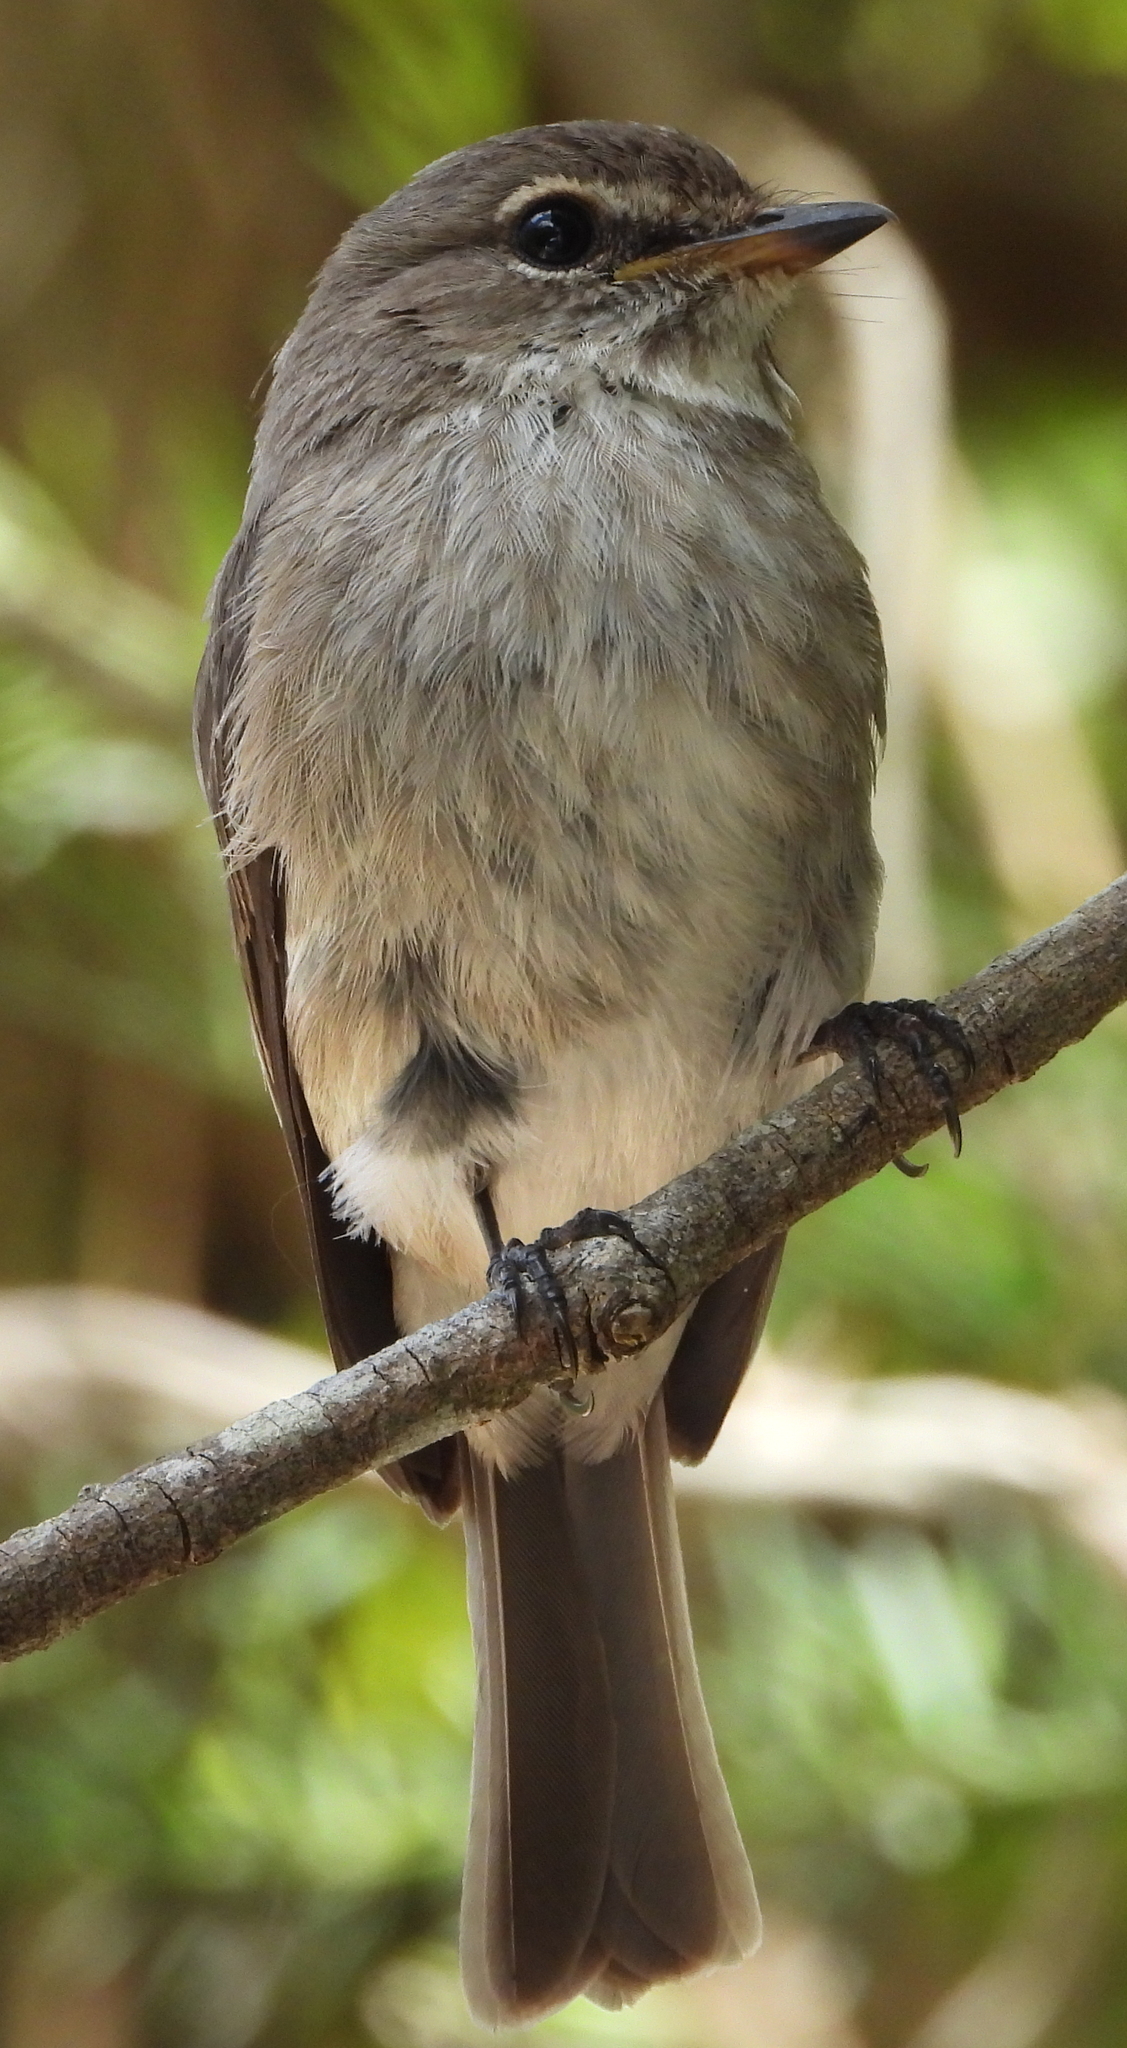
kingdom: Animalia
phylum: Chordata
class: Aves
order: Passeriformes
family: Muscicapidae
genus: Muscicapa
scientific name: Muscicapa adusta
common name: African dusky flycatcher
